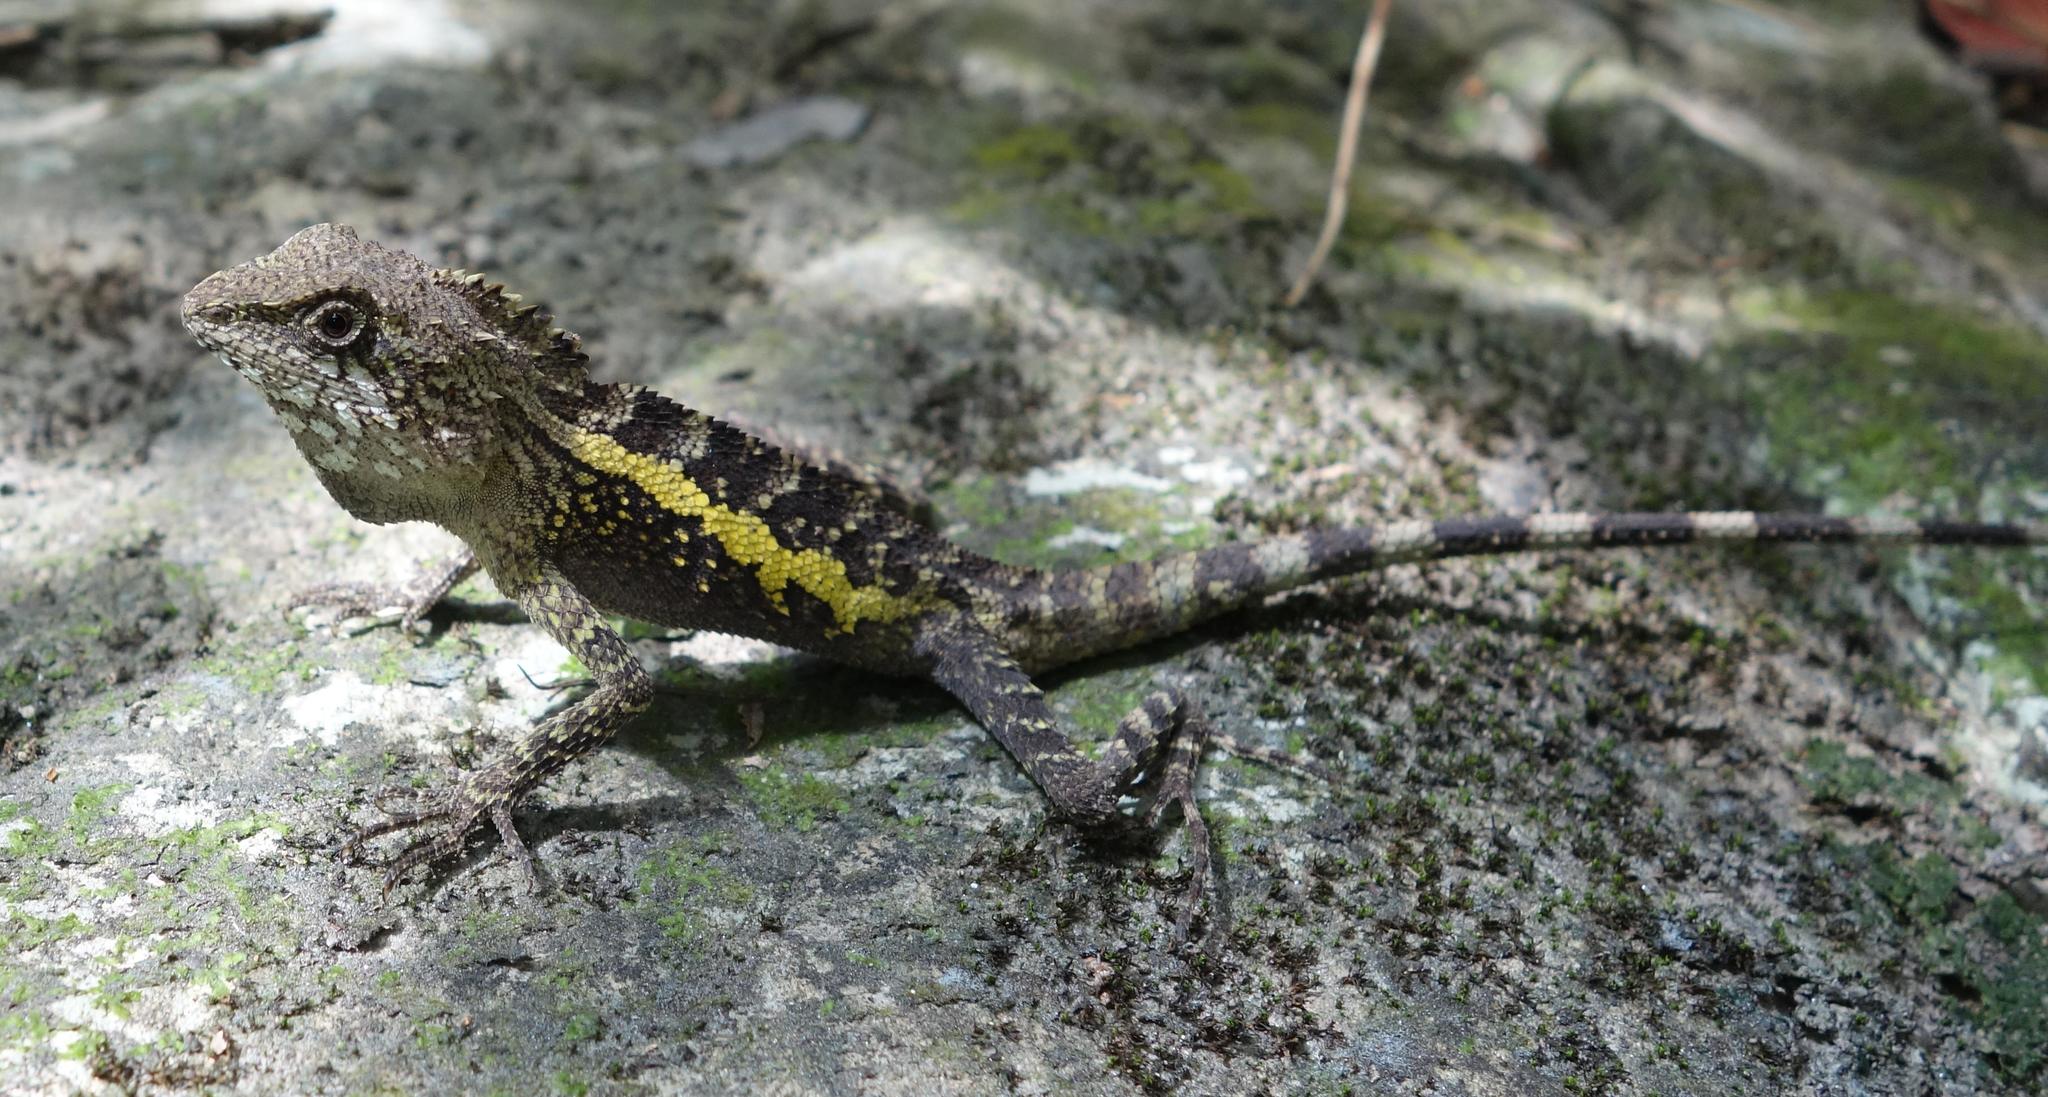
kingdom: Animalia
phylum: Chordata
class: Squamata
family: Agamidae
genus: Diploderma
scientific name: Diploderma swinhonis
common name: Taiwan japalure
